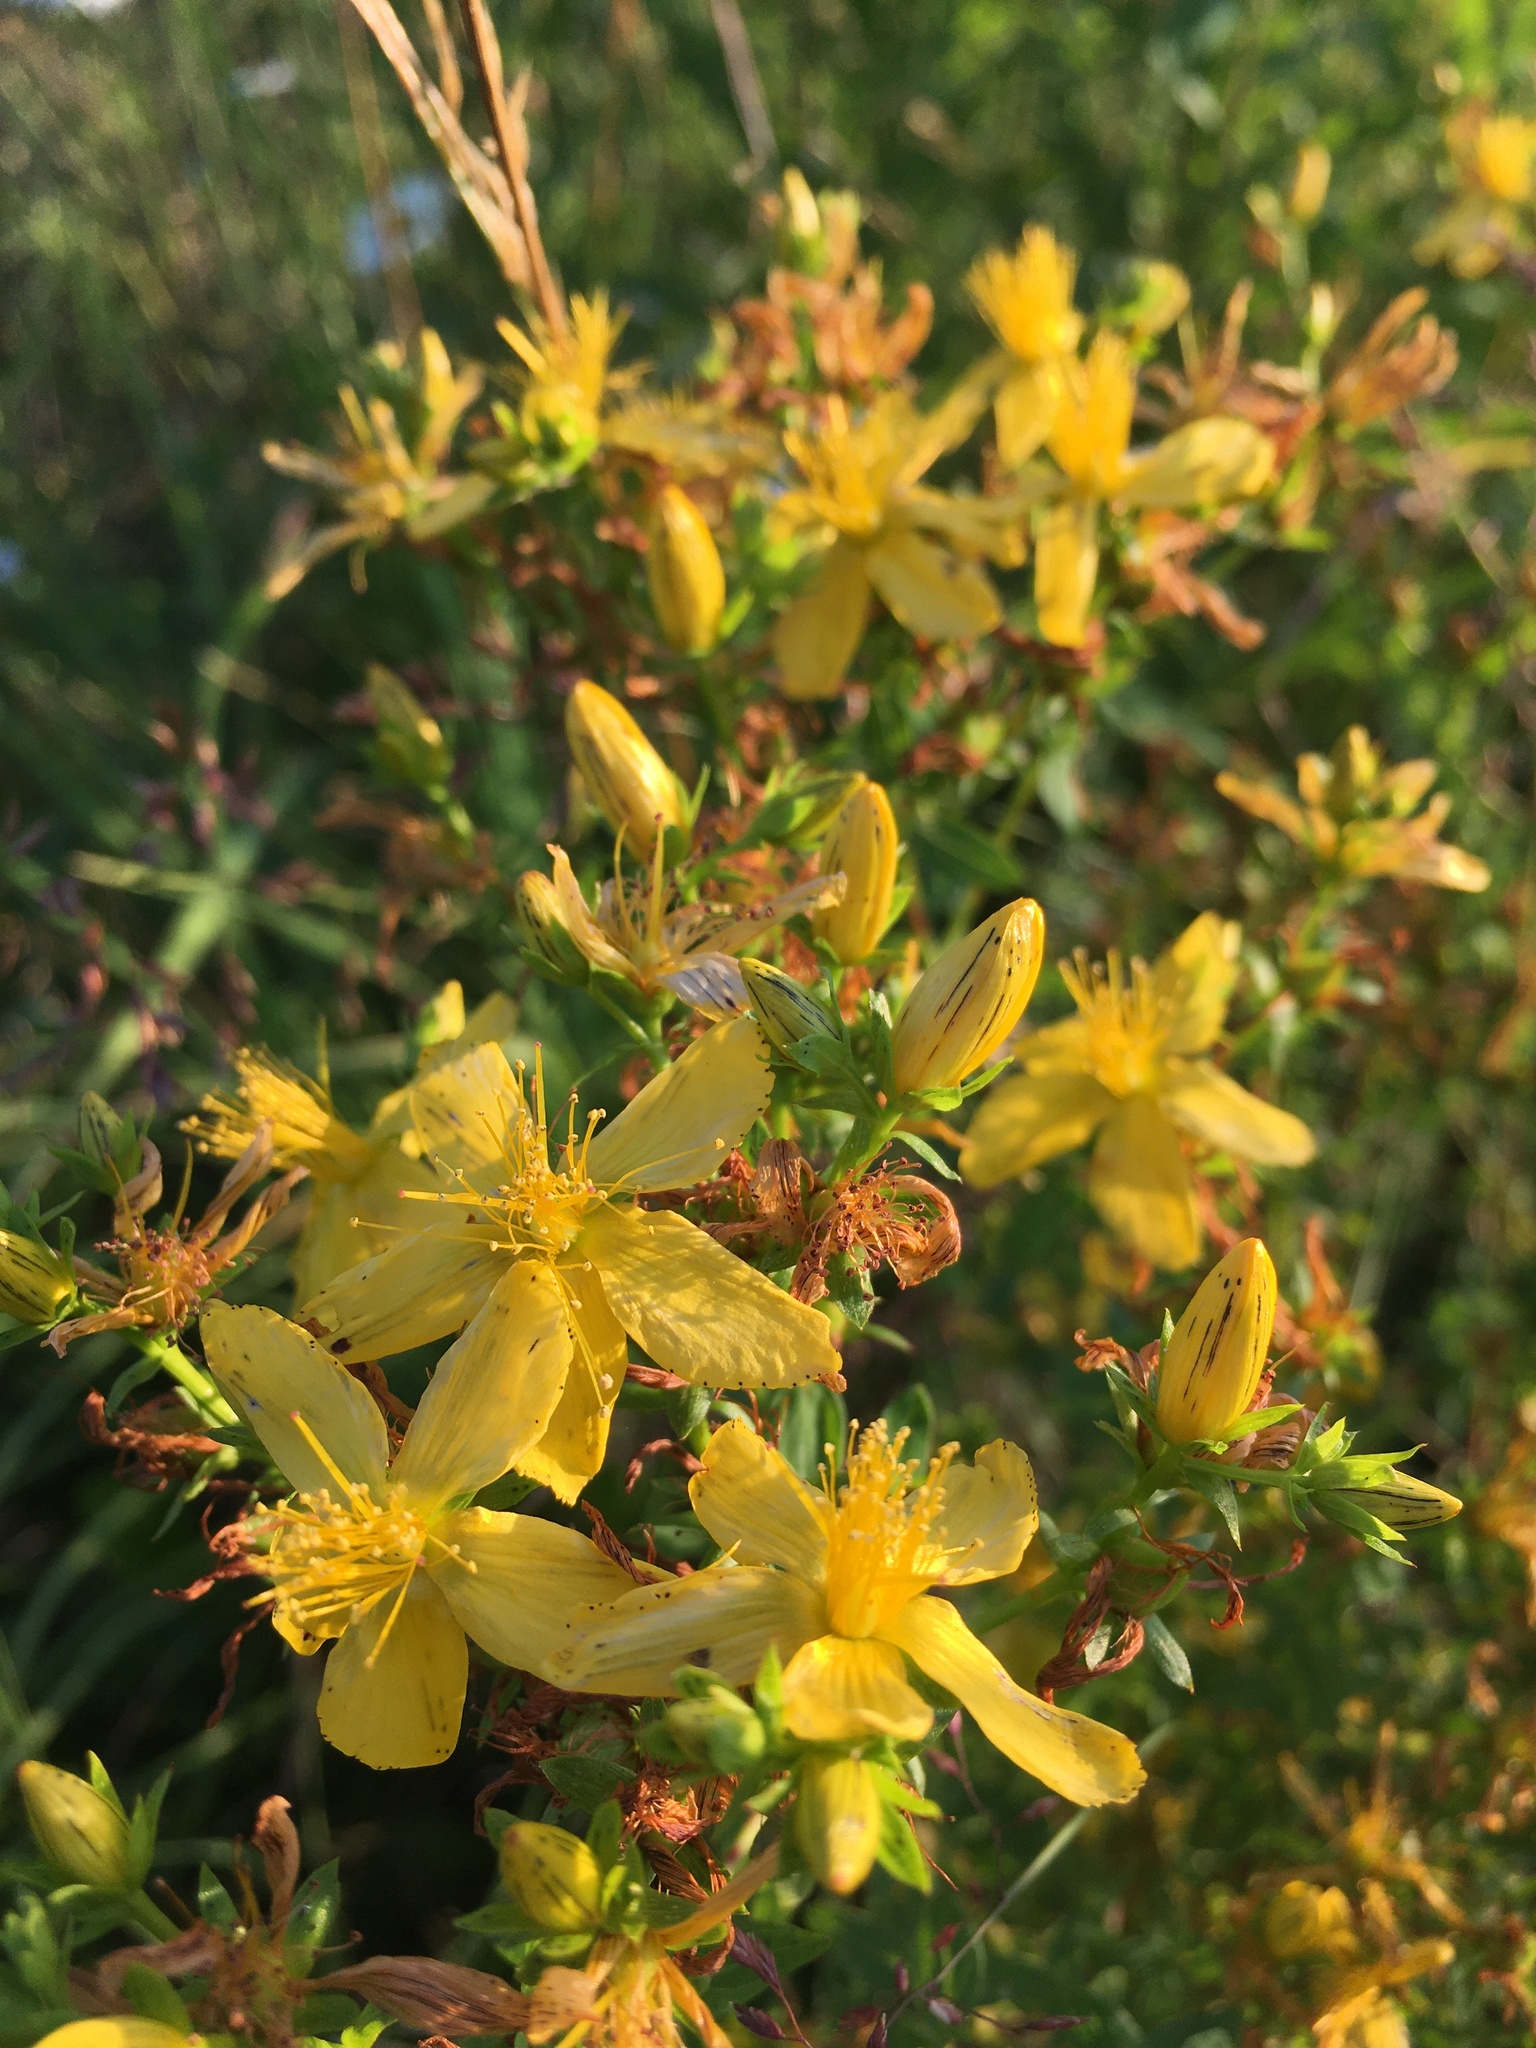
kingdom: Plantae
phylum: Tracheophyta
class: Magnoliopsida
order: Malpighiales
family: Hypericaceae
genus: Hypericum
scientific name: Hypericum perforatum
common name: Common st. johnswort
